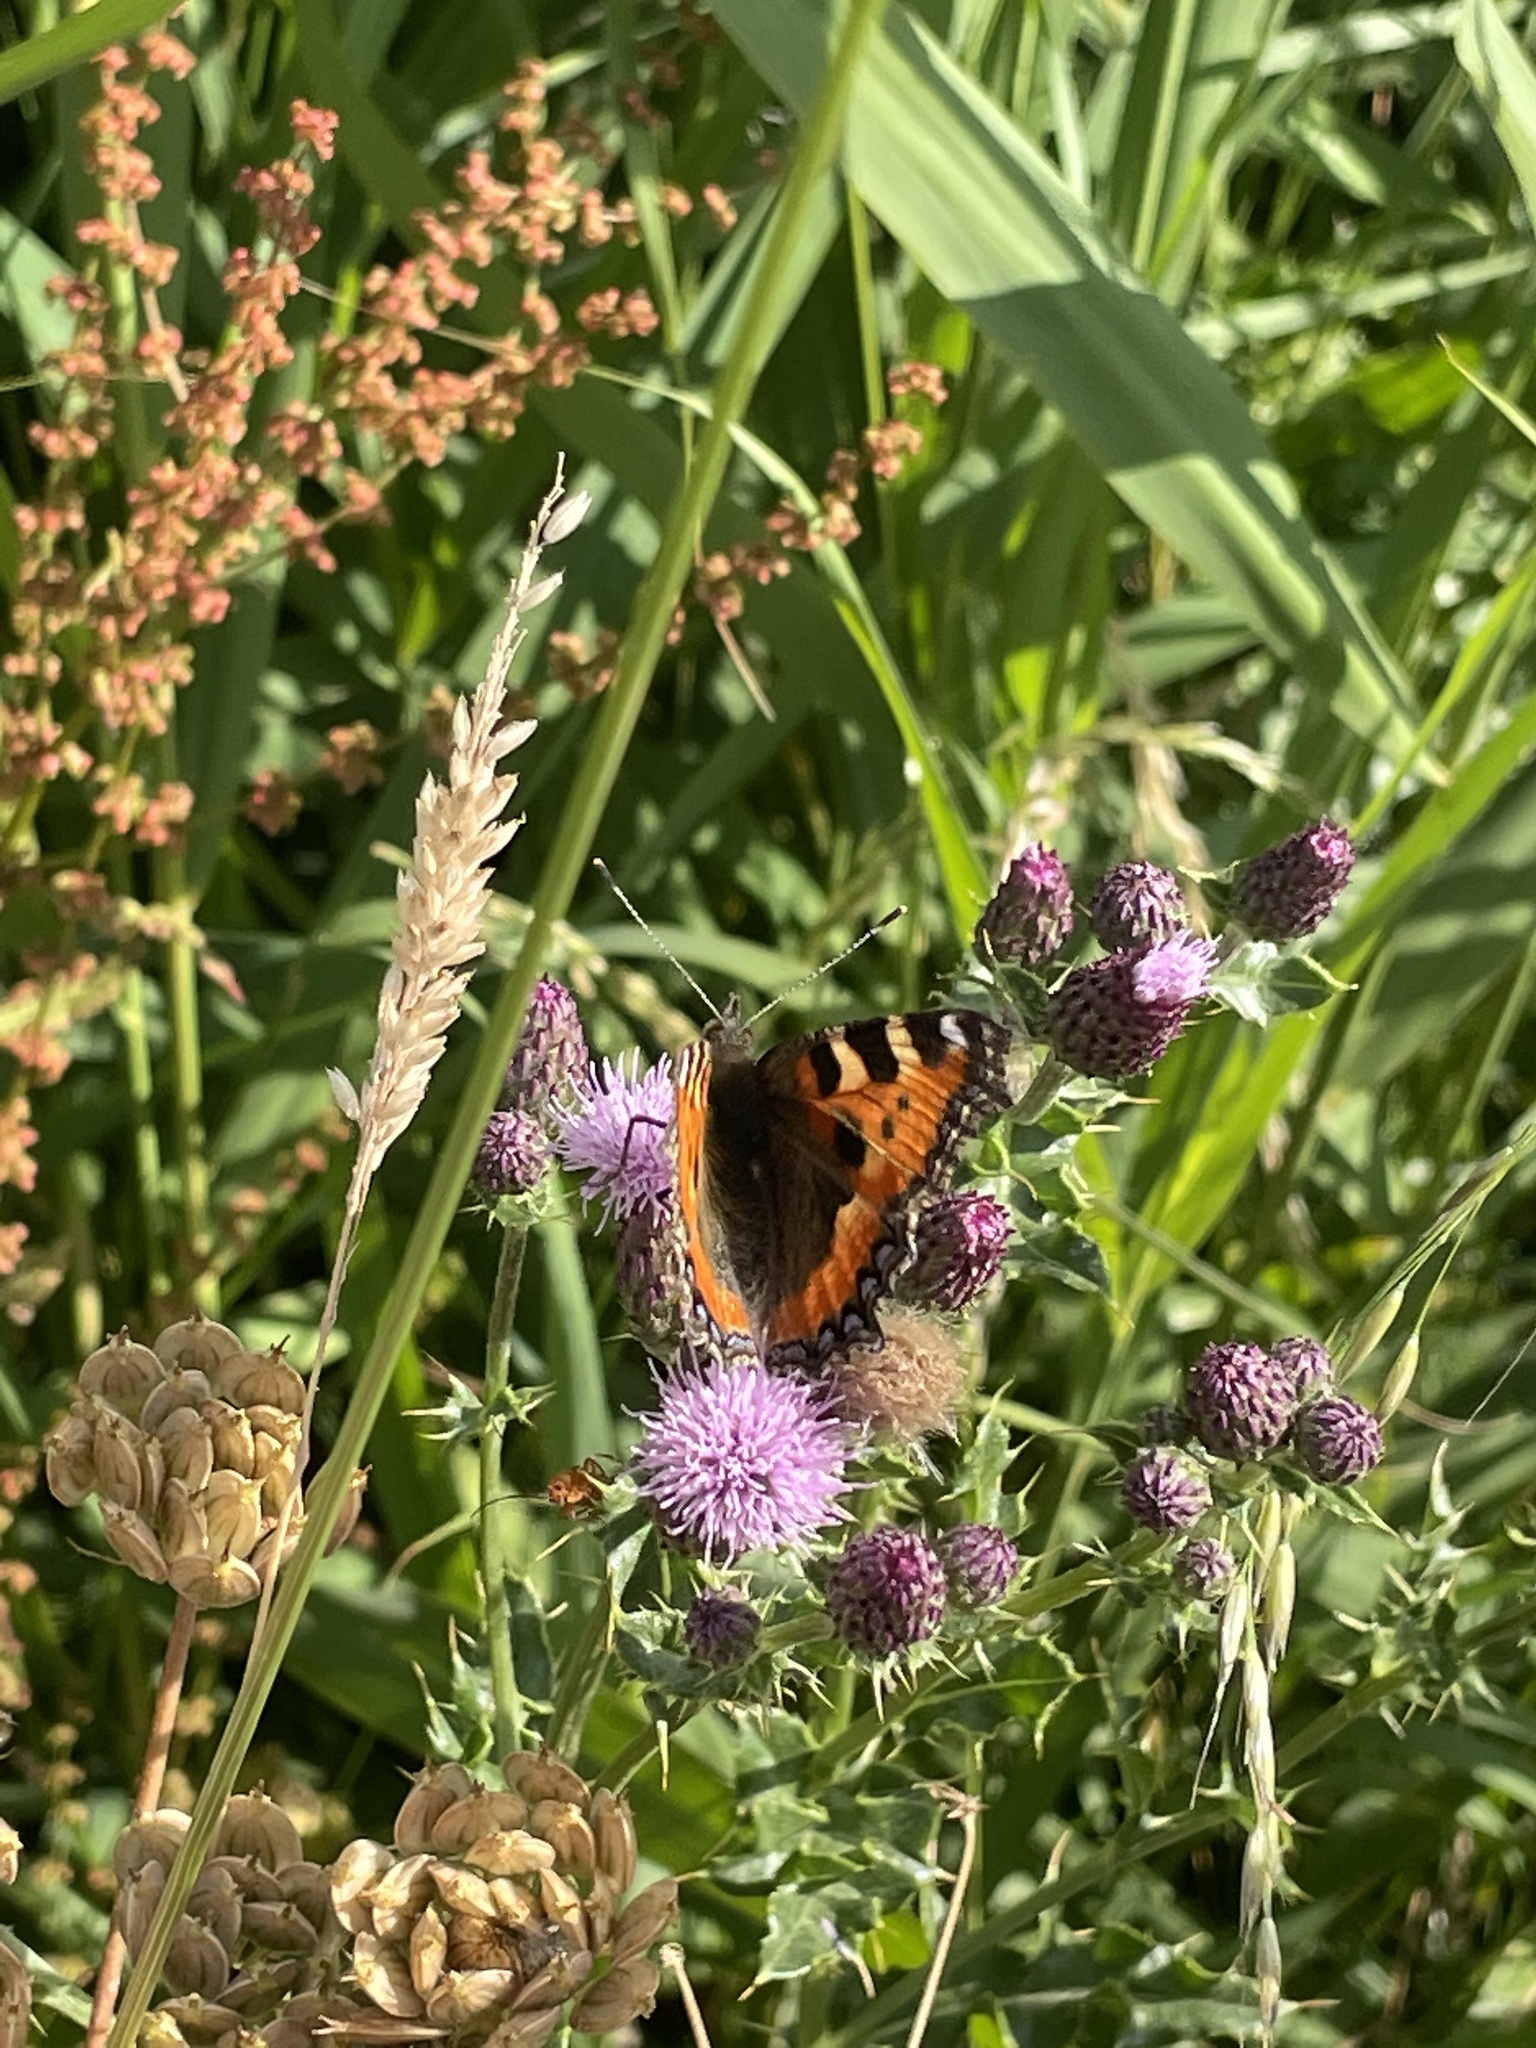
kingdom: Animalia
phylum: Arthropoda
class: Insecta
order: Lepidoptera
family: Nymphalidae
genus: Aglais
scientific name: Aglais urticae
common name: Small tortoiseshell
